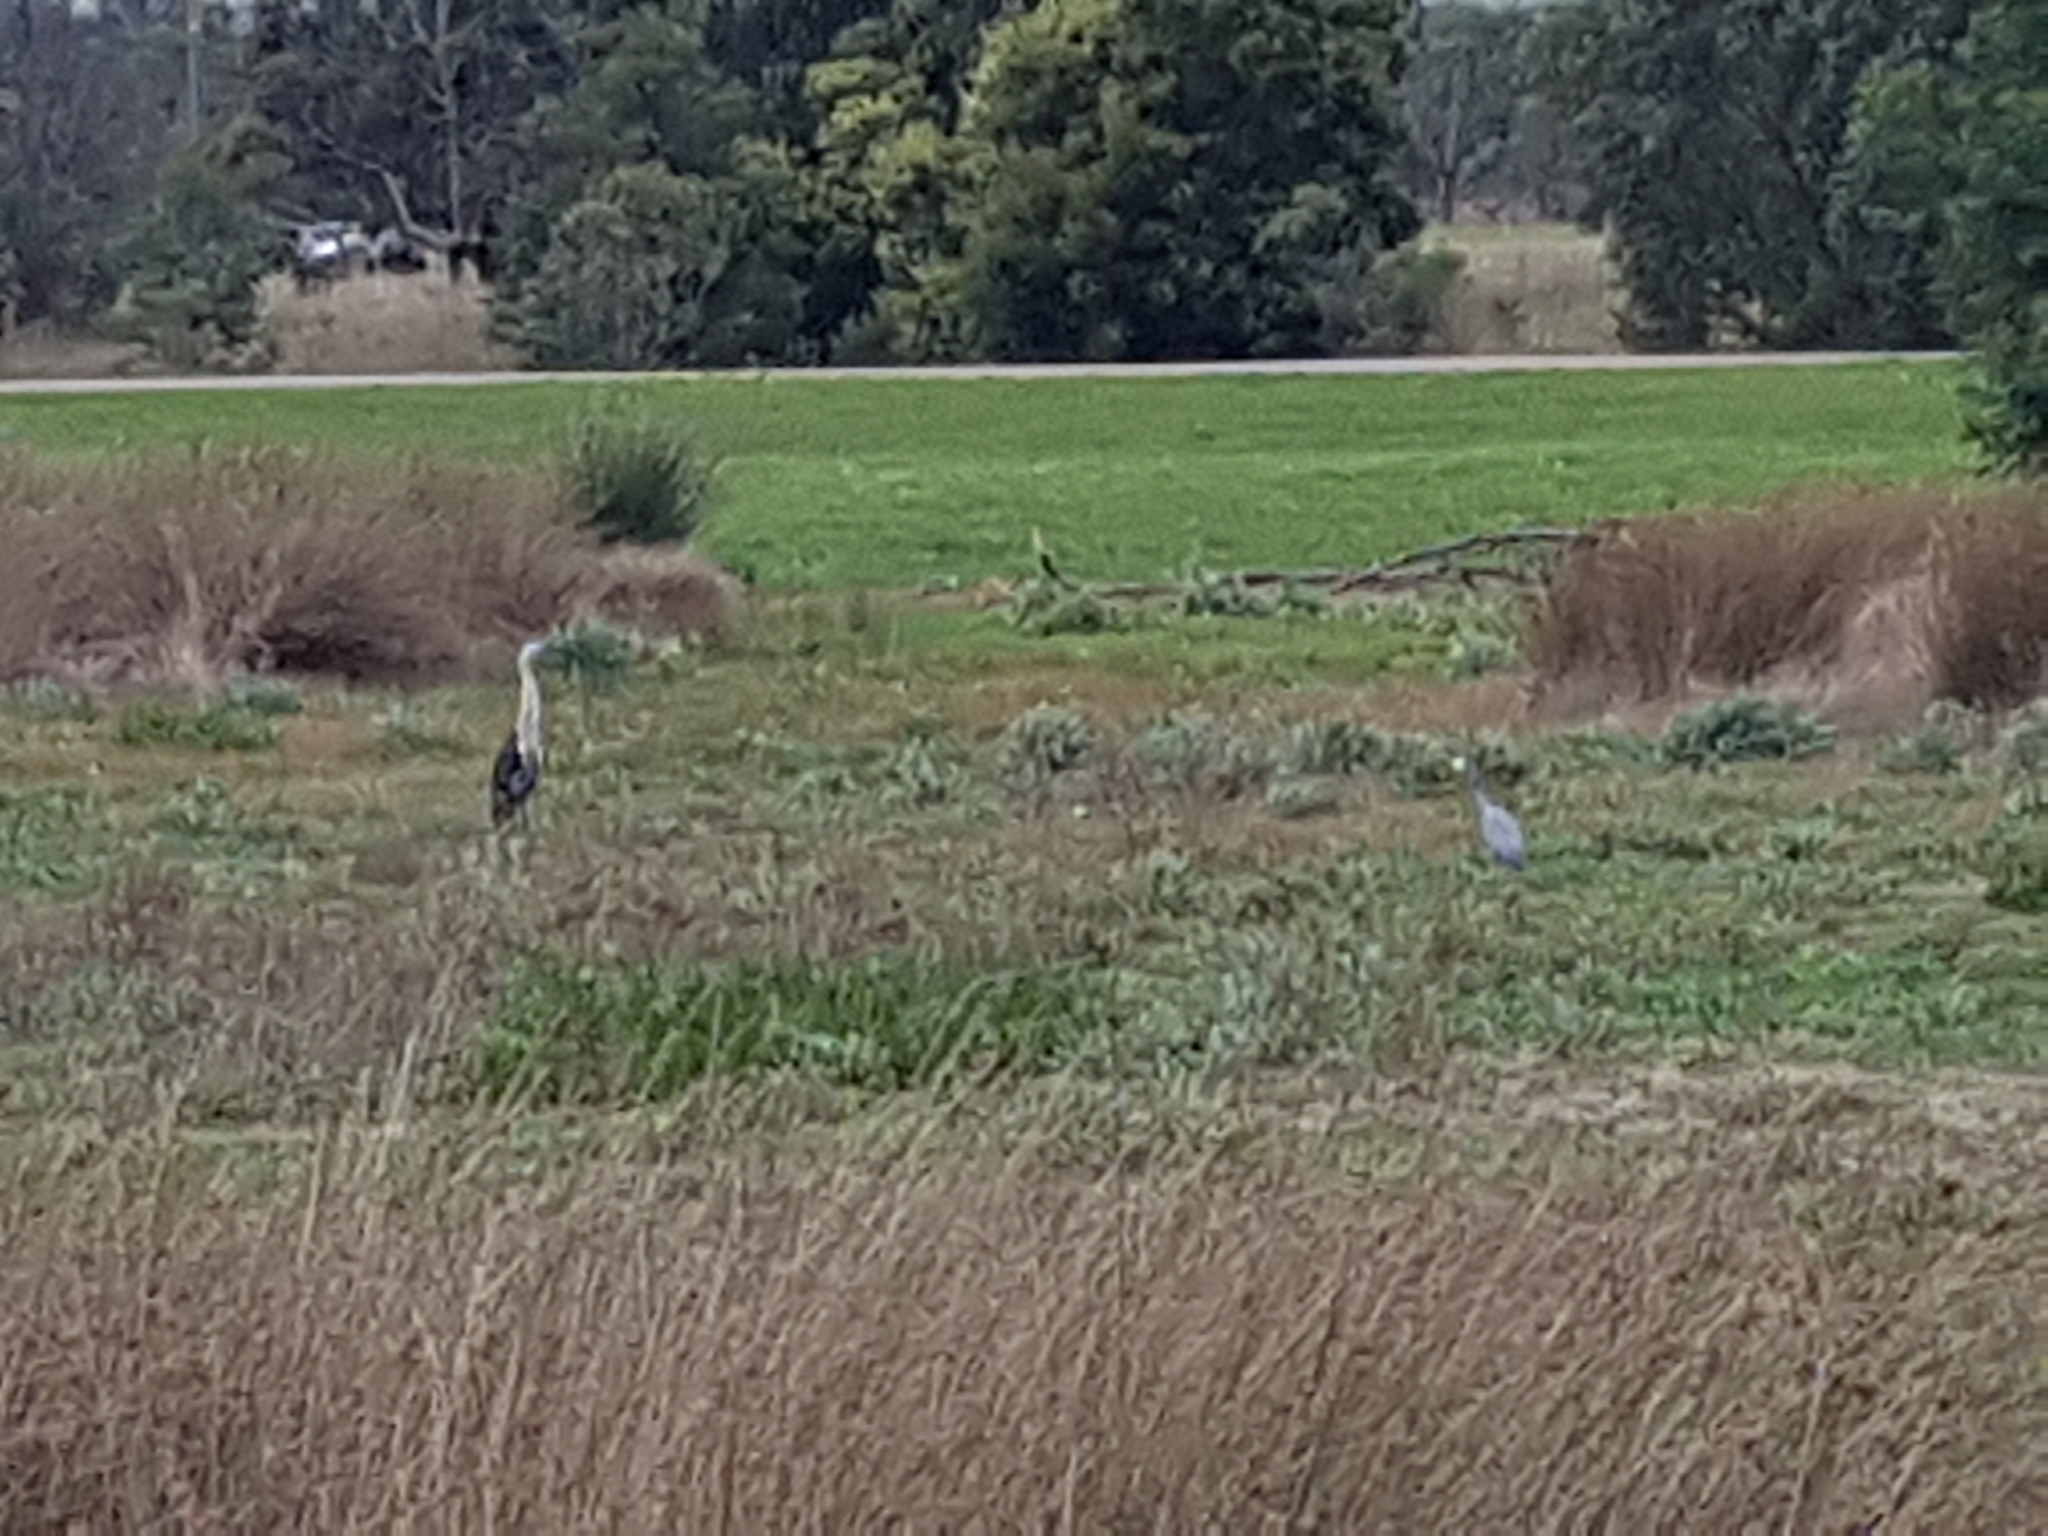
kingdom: Animalia
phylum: Chordata
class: Aves
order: Pelecaniformes
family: Ardeidae
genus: Ardea
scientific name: Ardea pacifica
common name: White-necked heron
